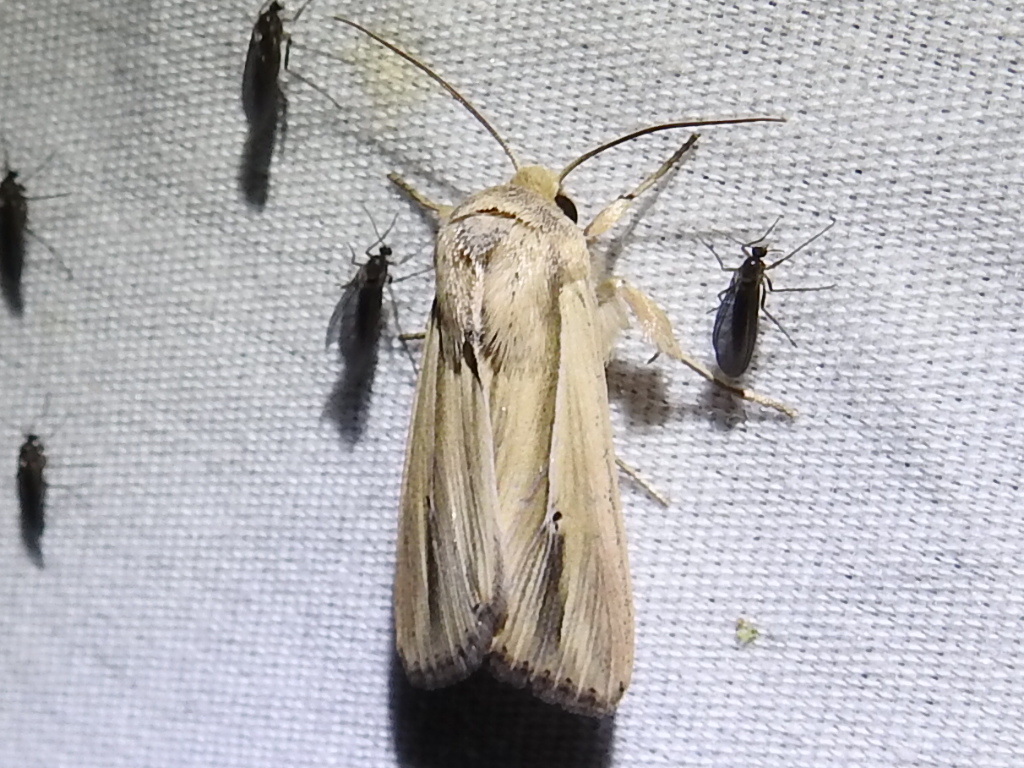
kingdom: Animalia
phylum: Arthropoda
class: Insecta
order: Lepidoptera
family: Noctuidae
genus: Dargida
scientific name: Dargida tetera
